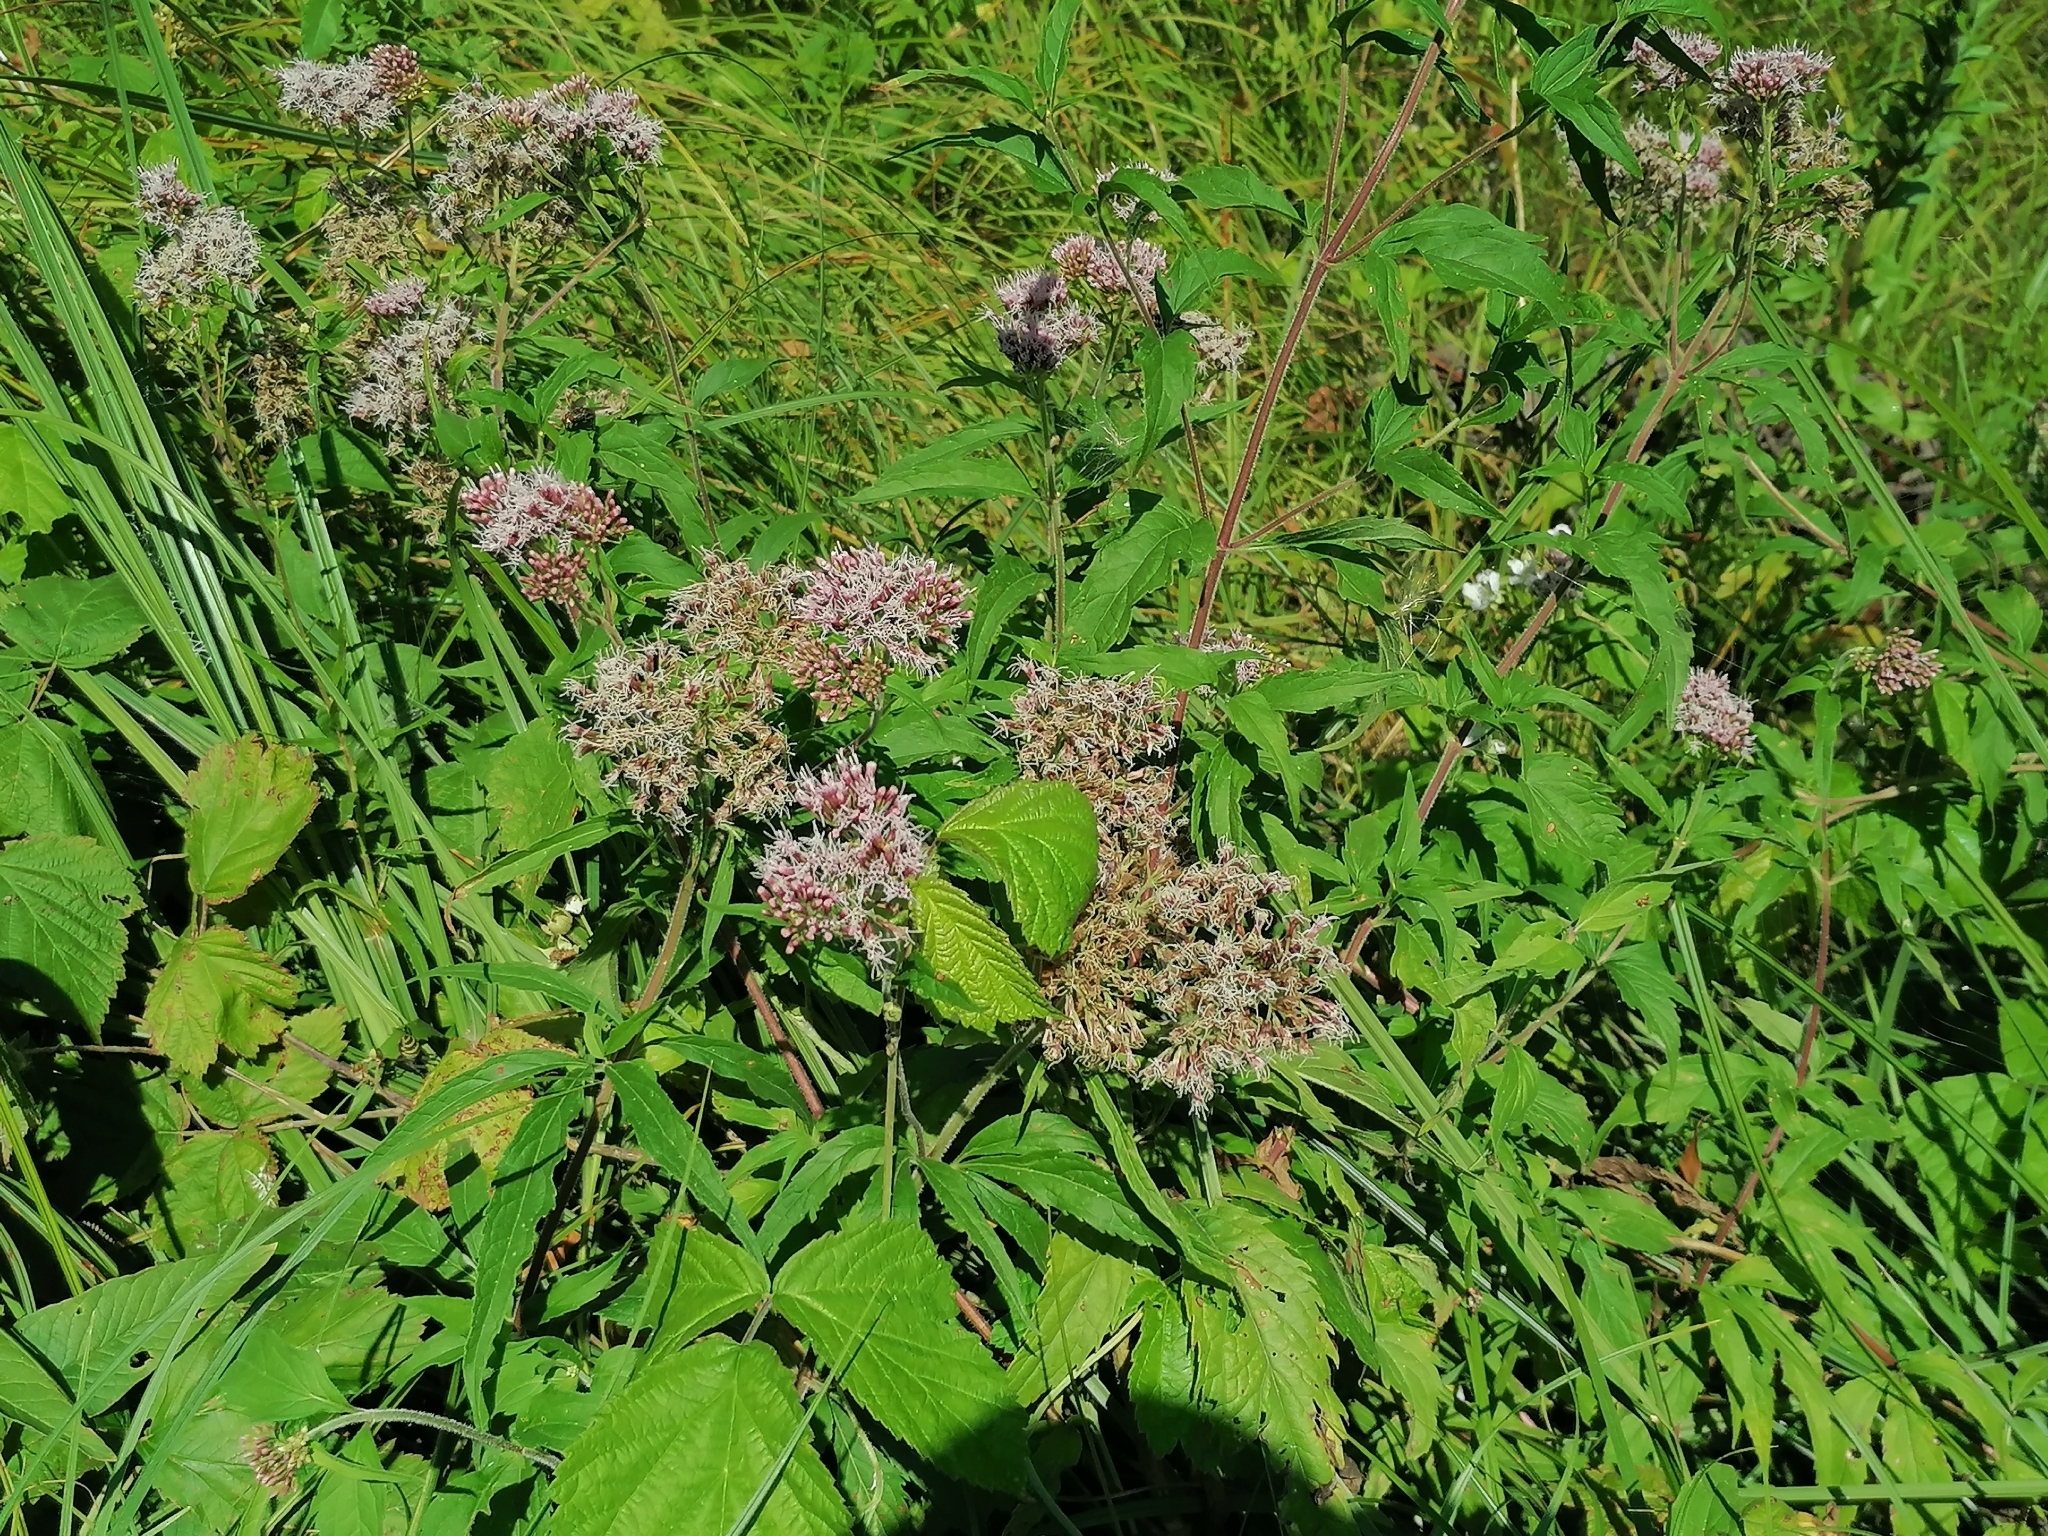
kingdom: Plantae
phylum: Tracheophyta
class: Magnoliopsida
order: Asterales
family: Asteraceae
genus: Eupatorium
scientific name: Eupatorium cannabinum
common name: Hemp-agrimony
